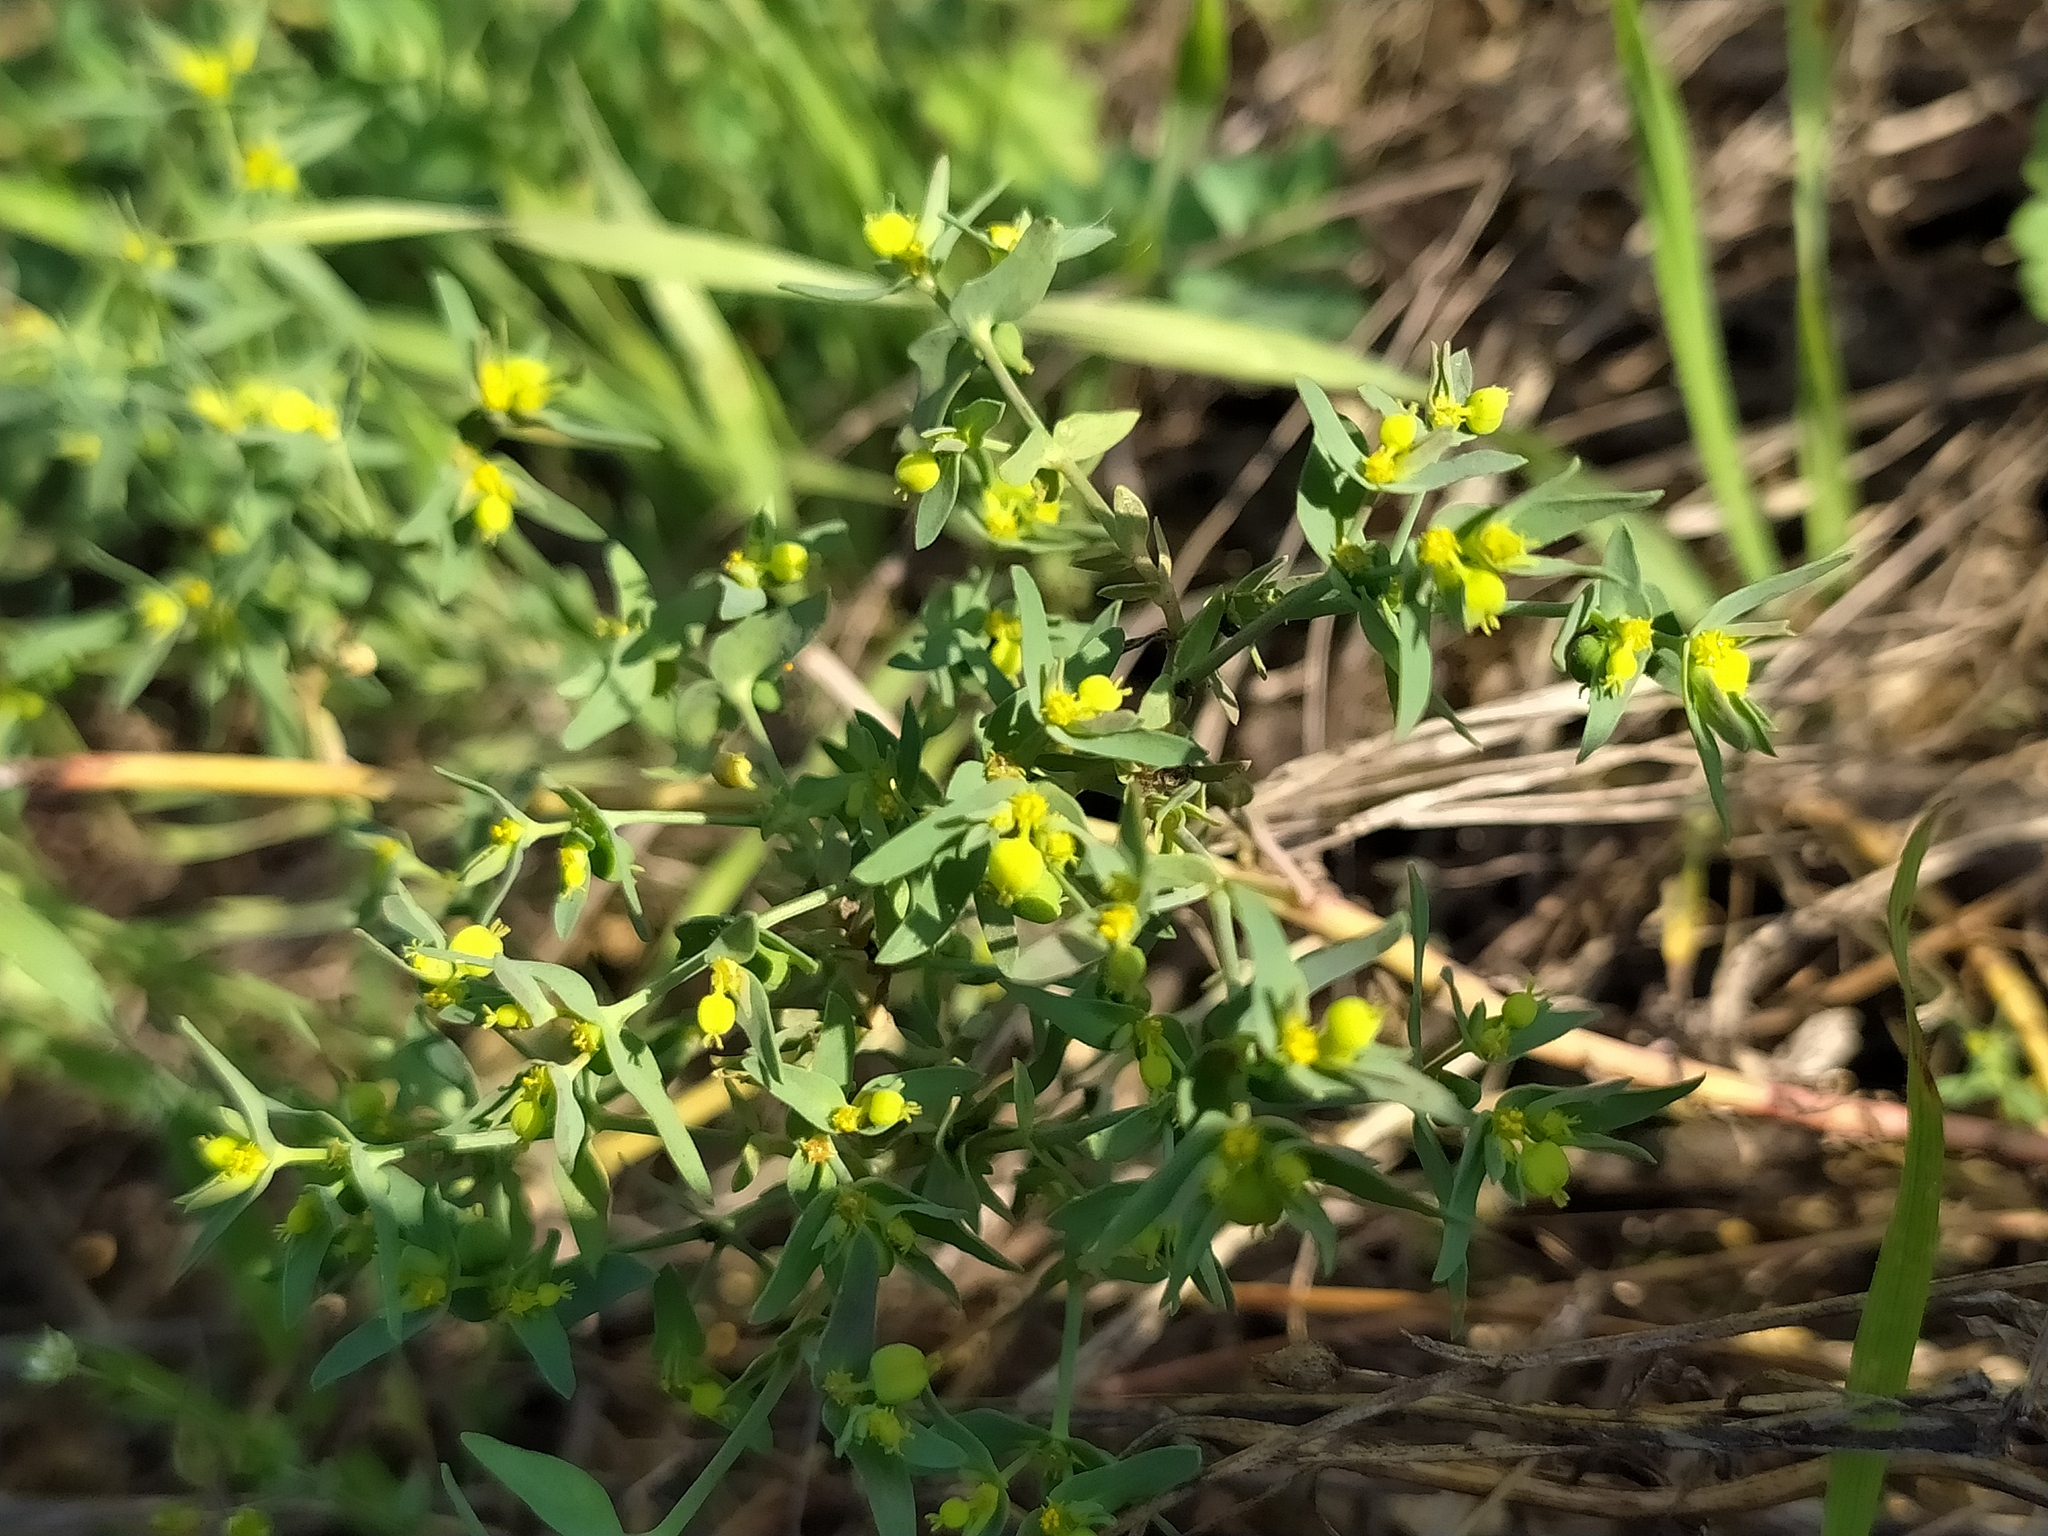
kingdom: Plantae
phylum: Tracheophyta
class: Magnoliopsida
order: Malpighiales
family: Euphorbiaceae
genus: Euphorbia
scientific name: Euphorbia exigua
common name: Dwarf spurge
